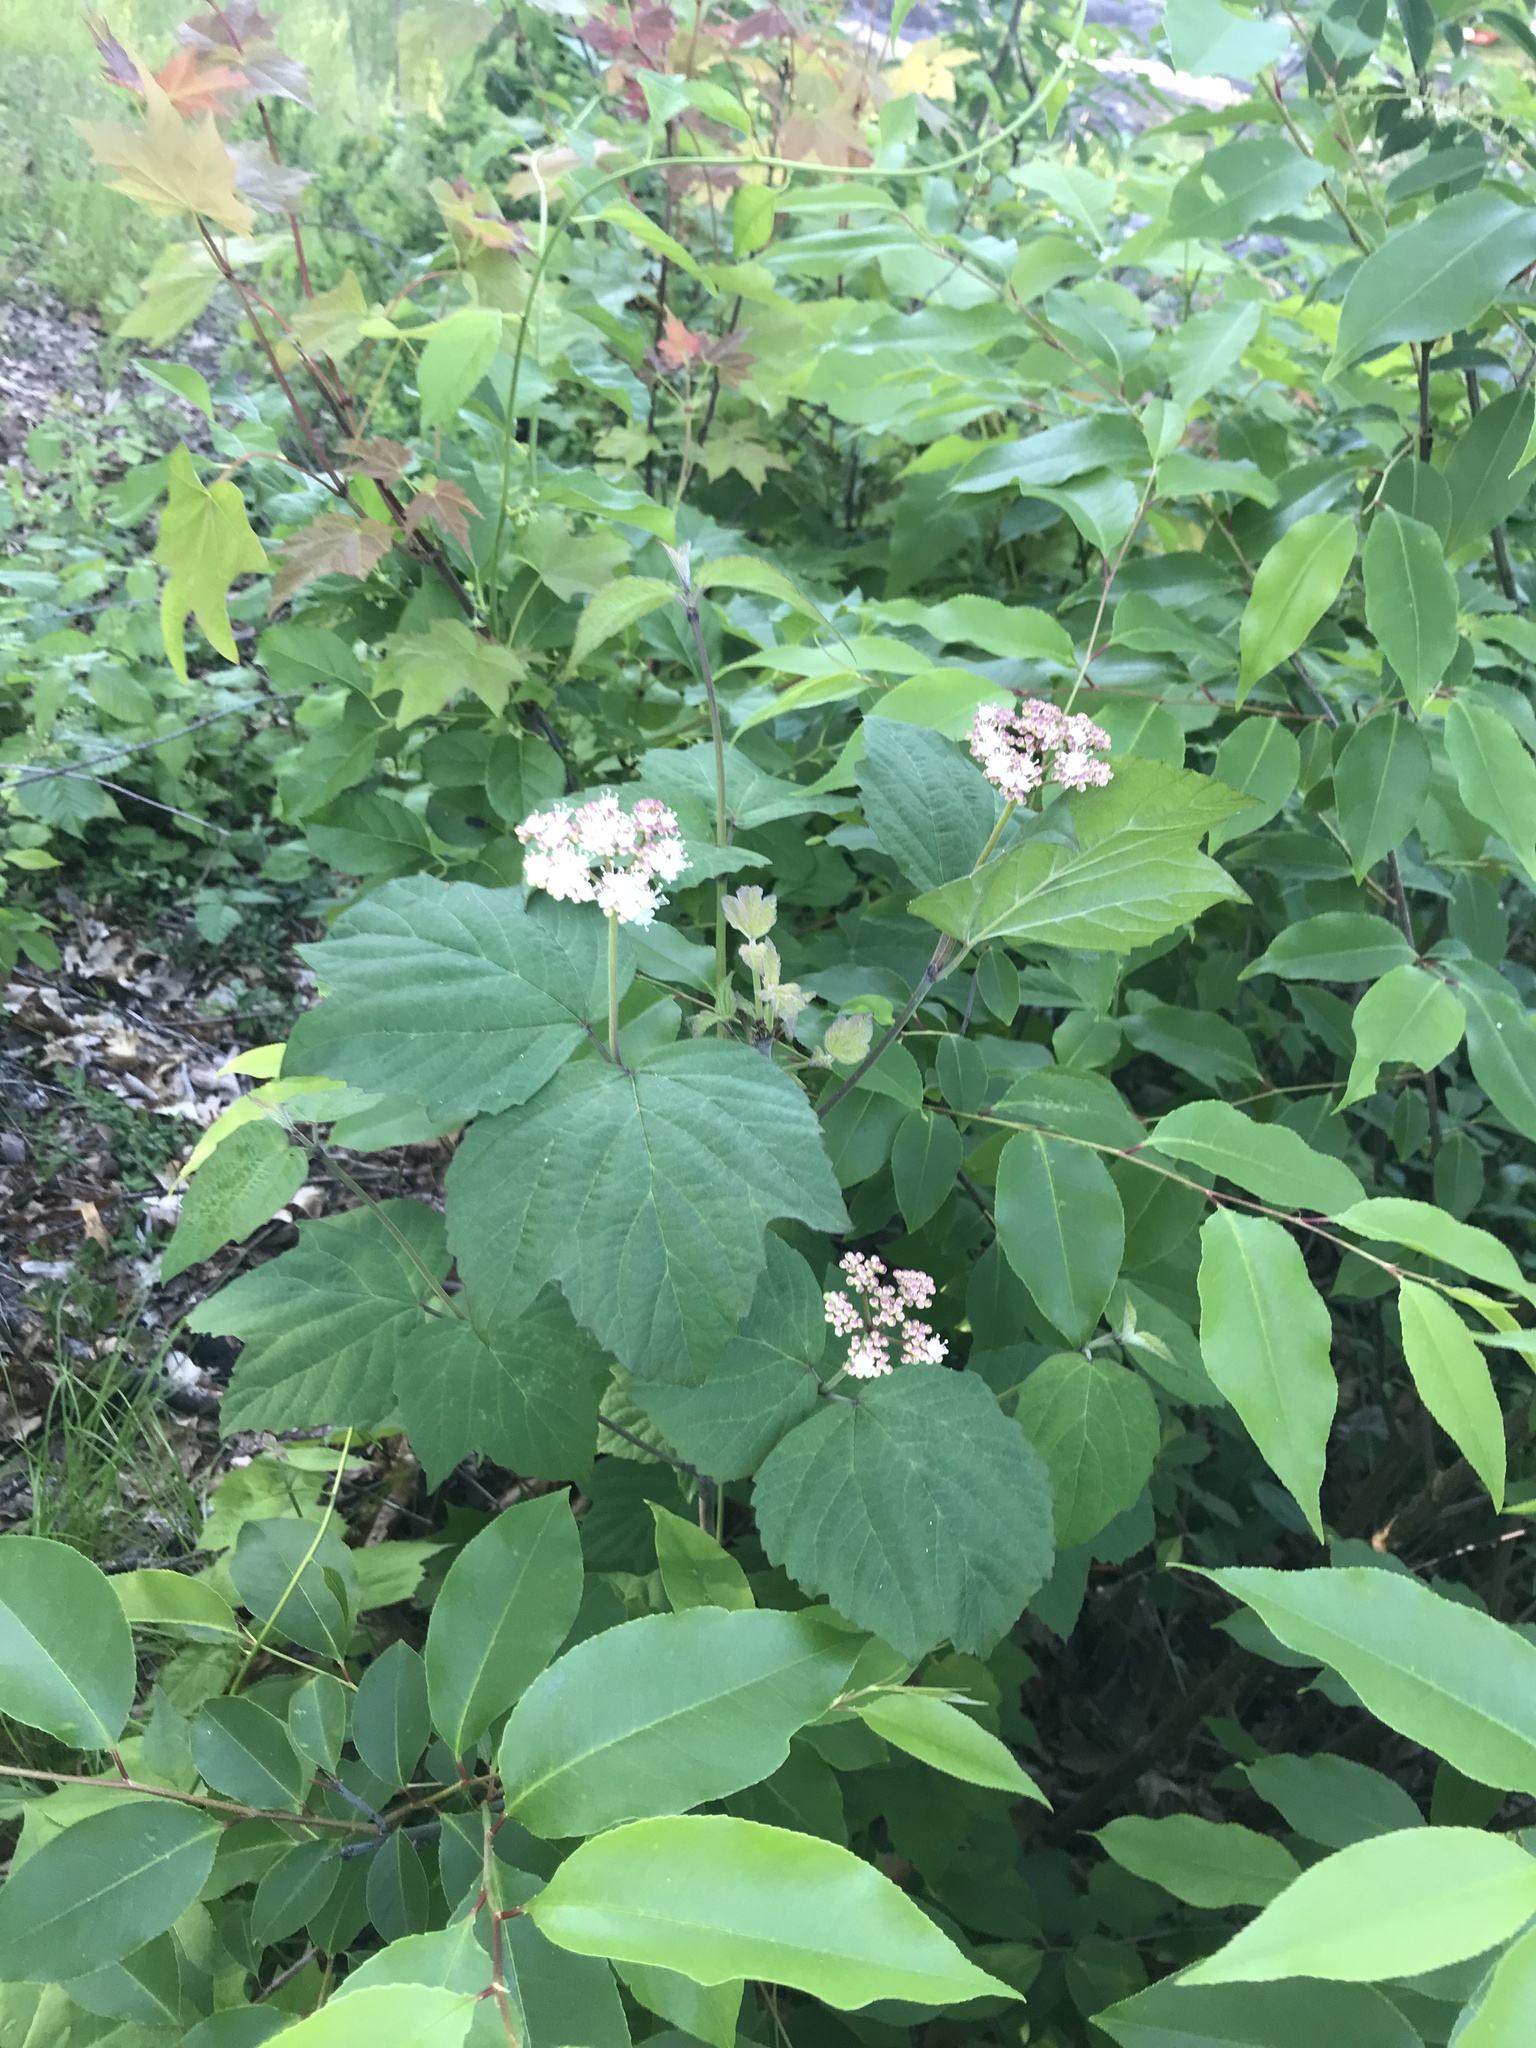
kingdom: Plantae
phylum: Tracheophyta
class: Magnoliopsida
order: Dipsacales
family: Viburnaceae
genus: Viburnum
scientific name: Viburnum acerifolium
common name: Dockmackie
